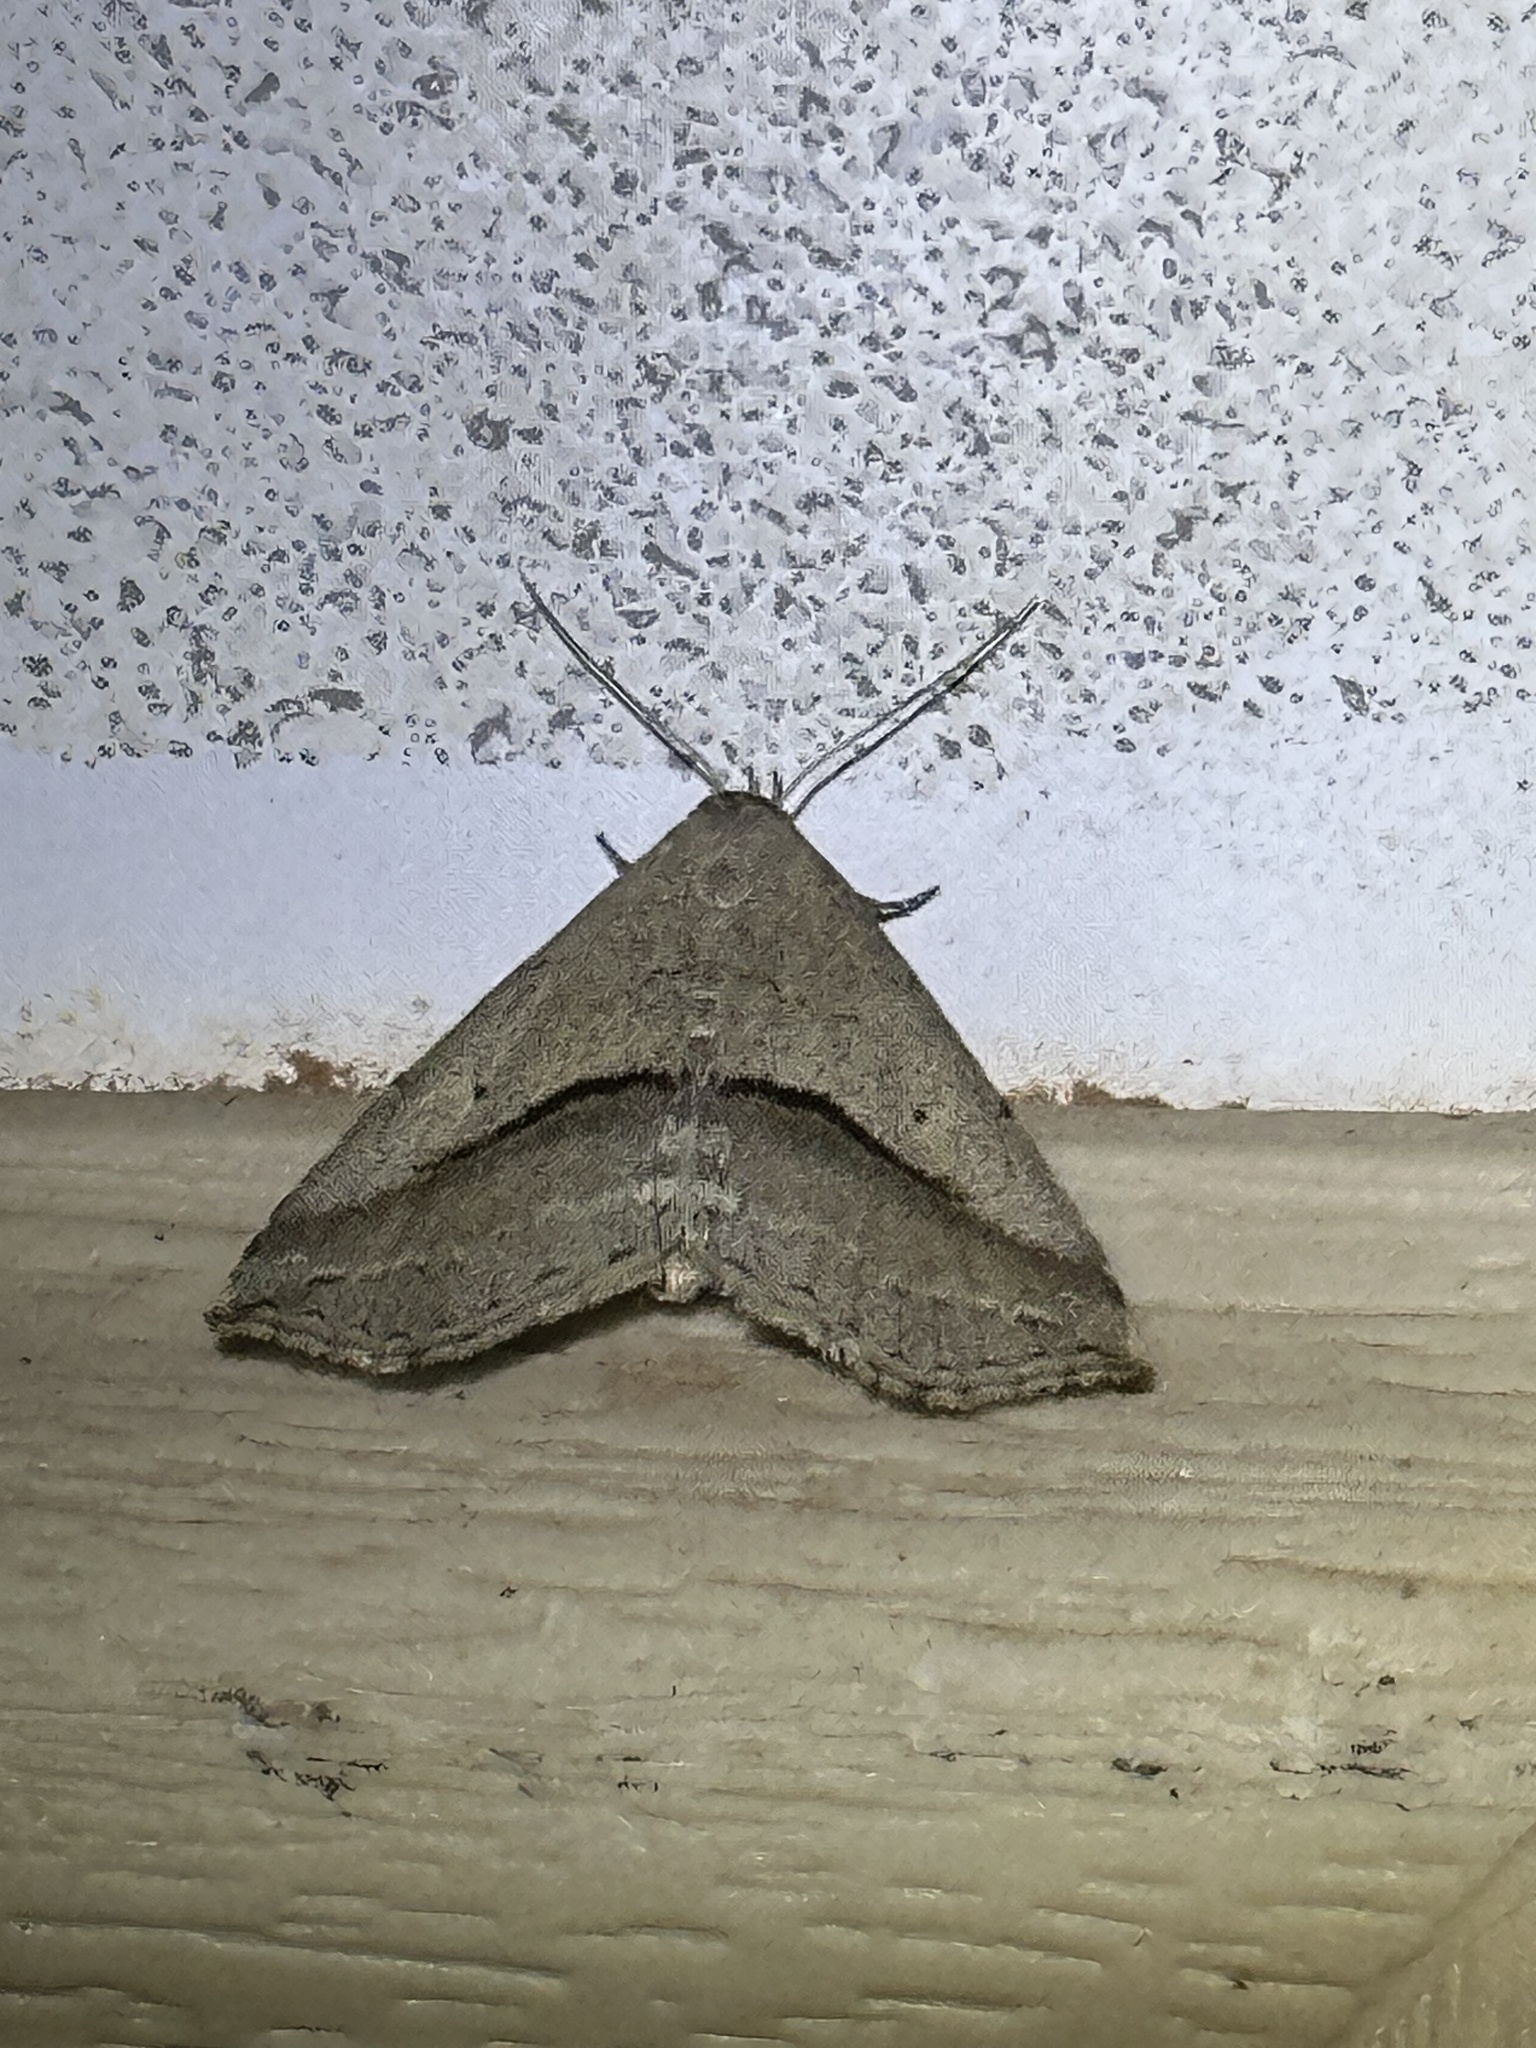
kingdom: Animalia
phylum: Arthropoda
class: Insecta
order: Lepidoptera
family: Erebidae
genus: Spargaloma
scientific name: Spargaloma perditalis
